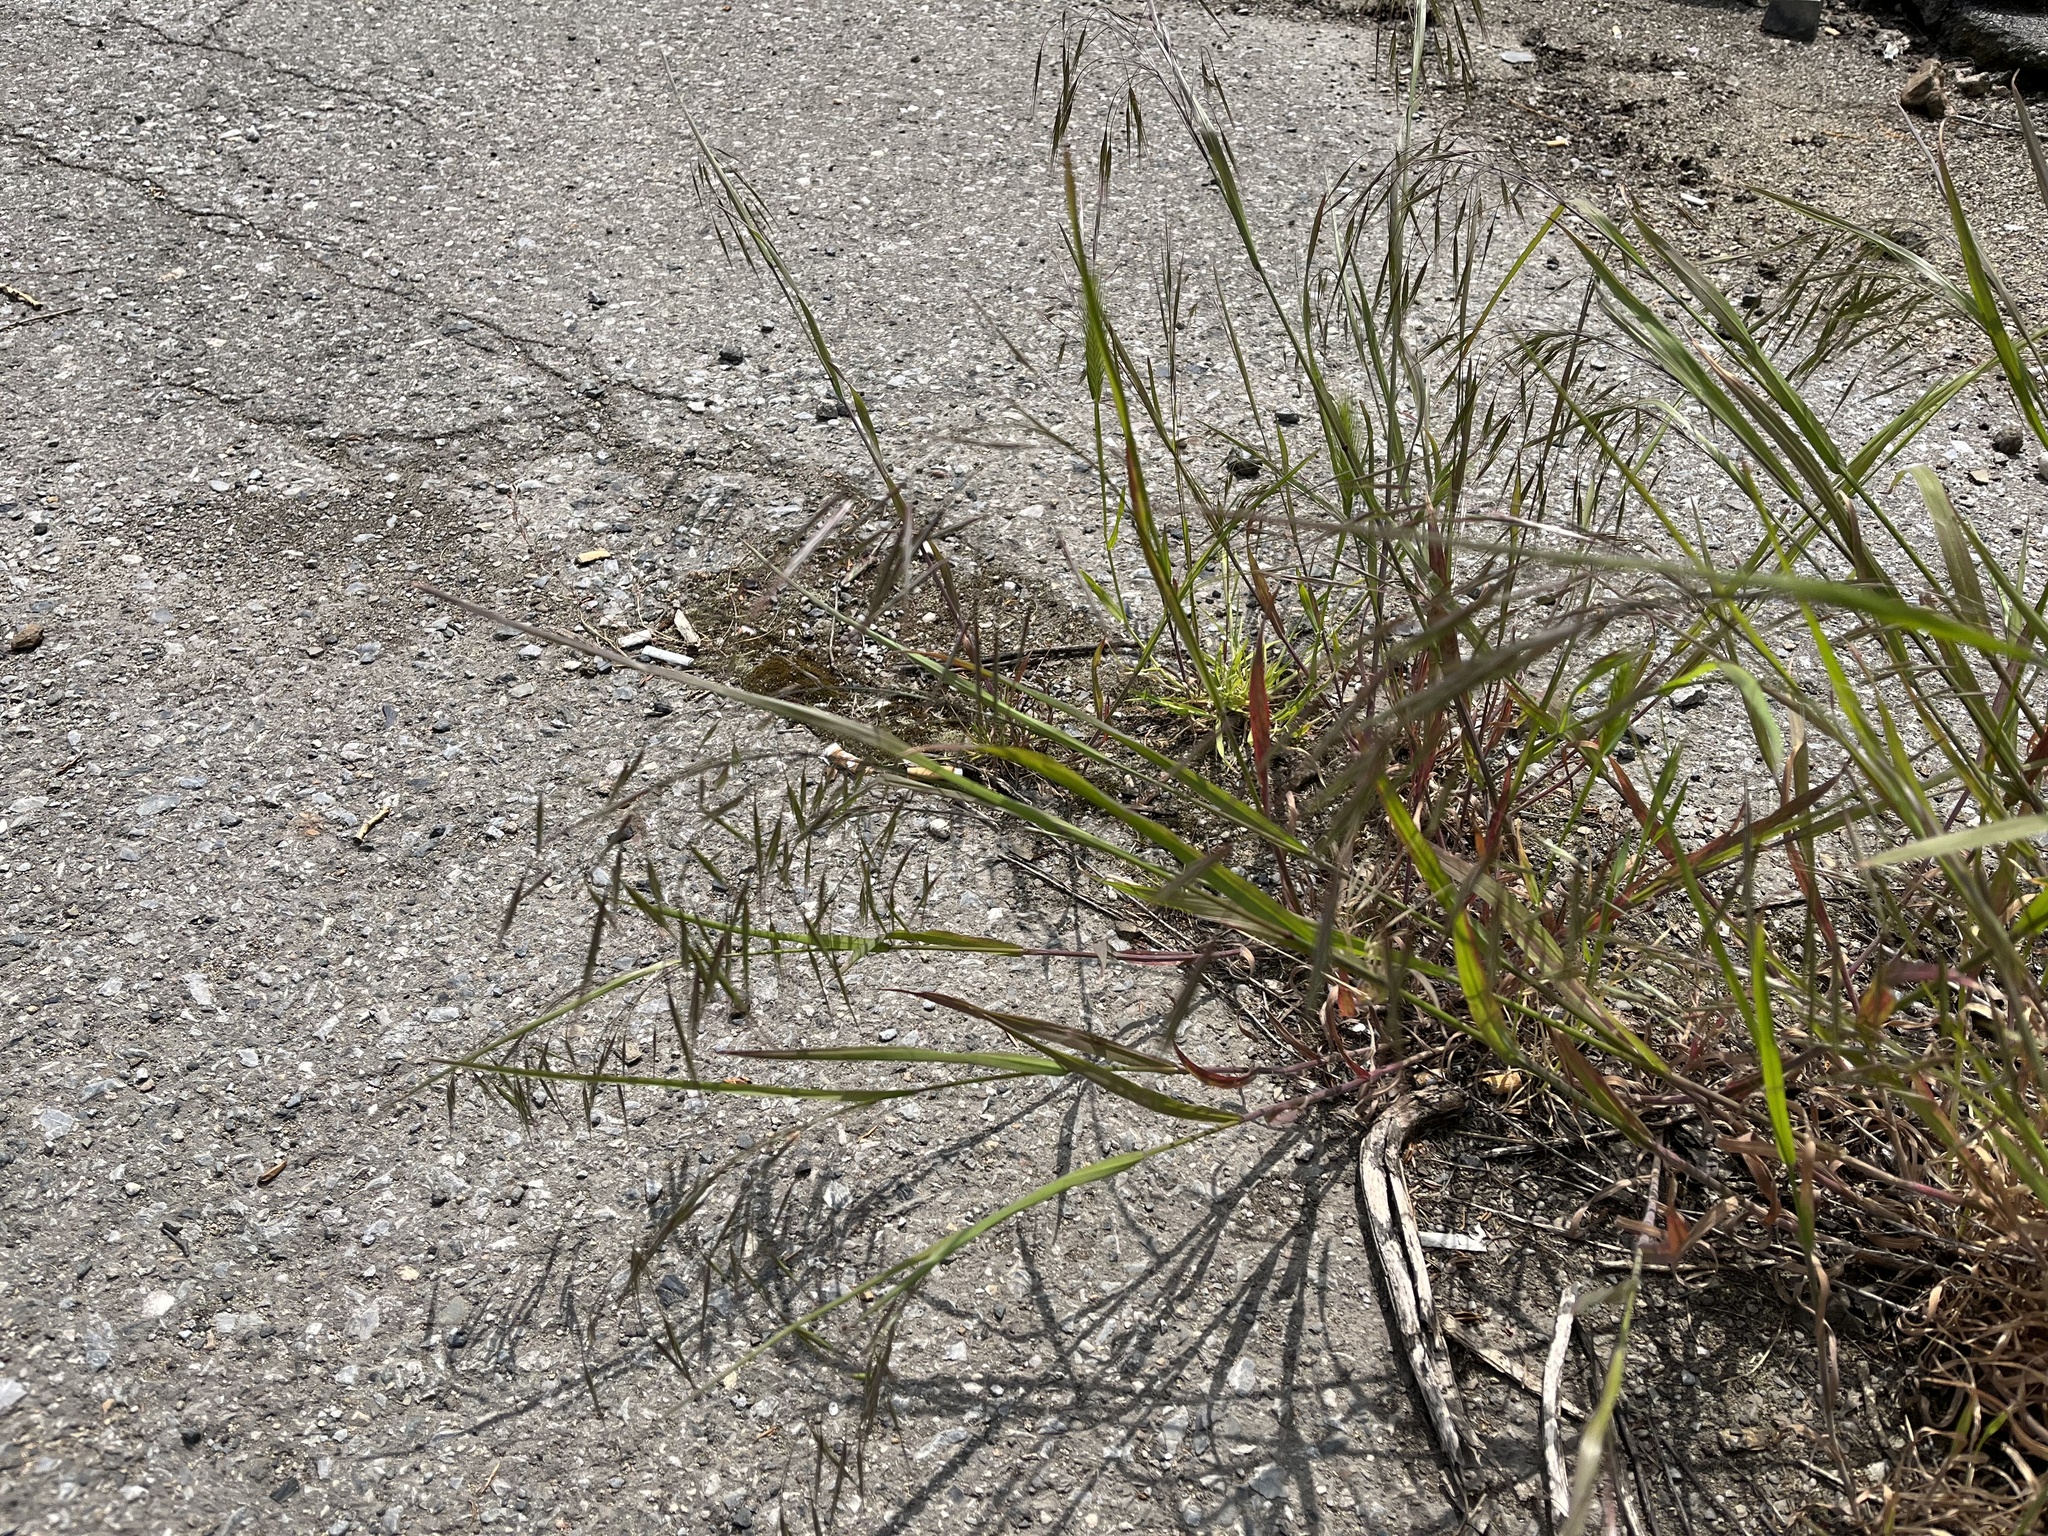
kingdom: Plantae
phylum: Tracheophyta
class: Liliopsida
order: Poales
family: Poaceae
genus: Bromus
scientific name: Bromus sterilis
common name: Poverty brome
